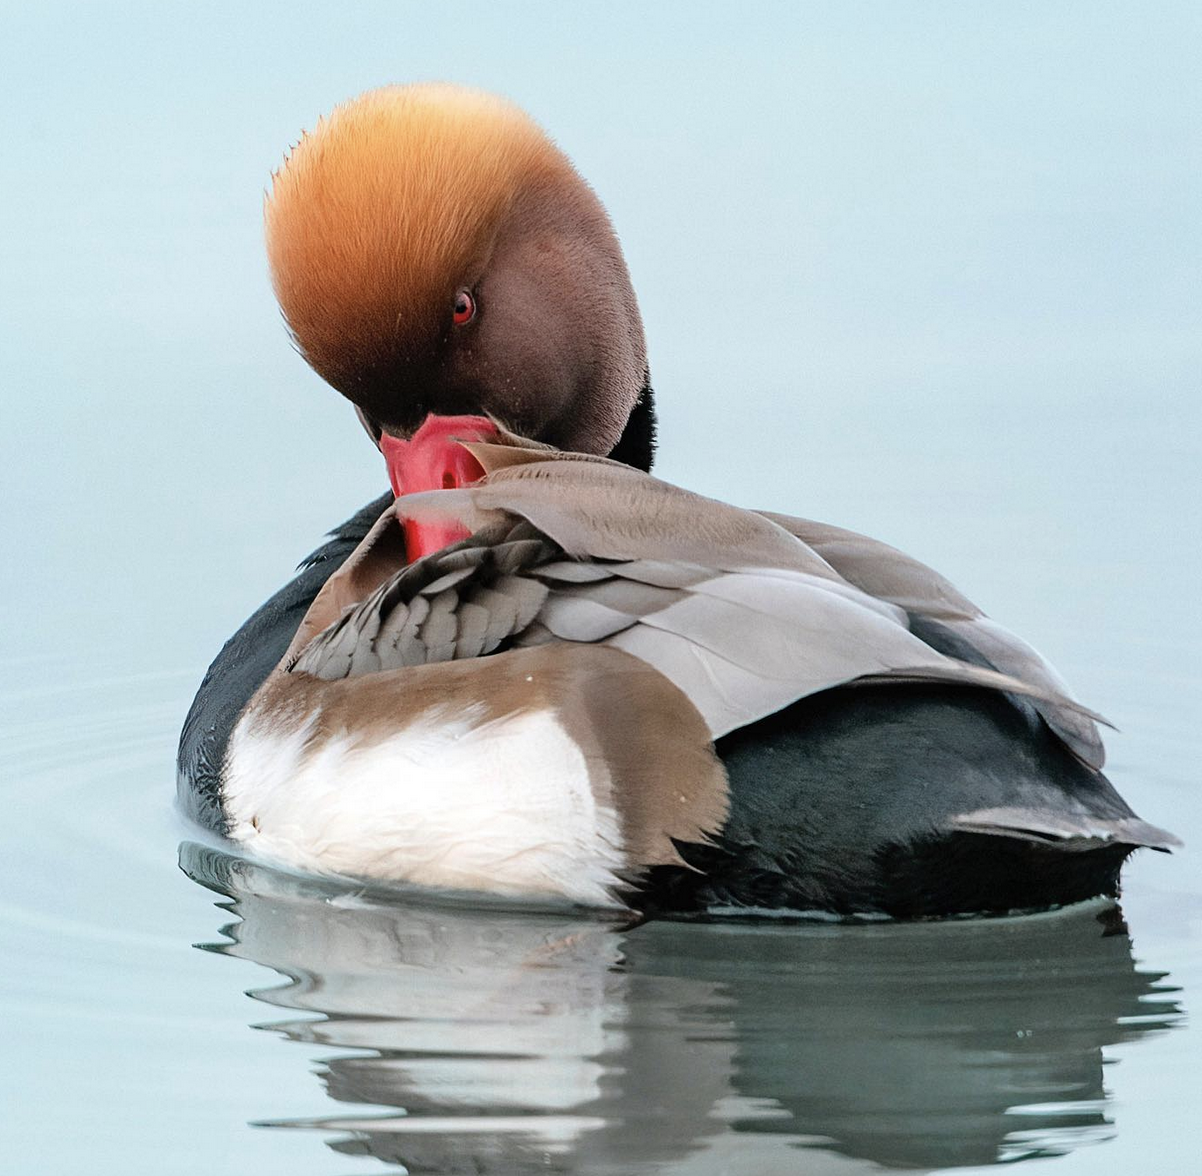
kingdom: Animalia
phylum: Chordata
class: Aves
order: Anseriformes
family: Anatidae
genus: Netta
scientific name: Netta rufina
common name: Red-crested pochard
